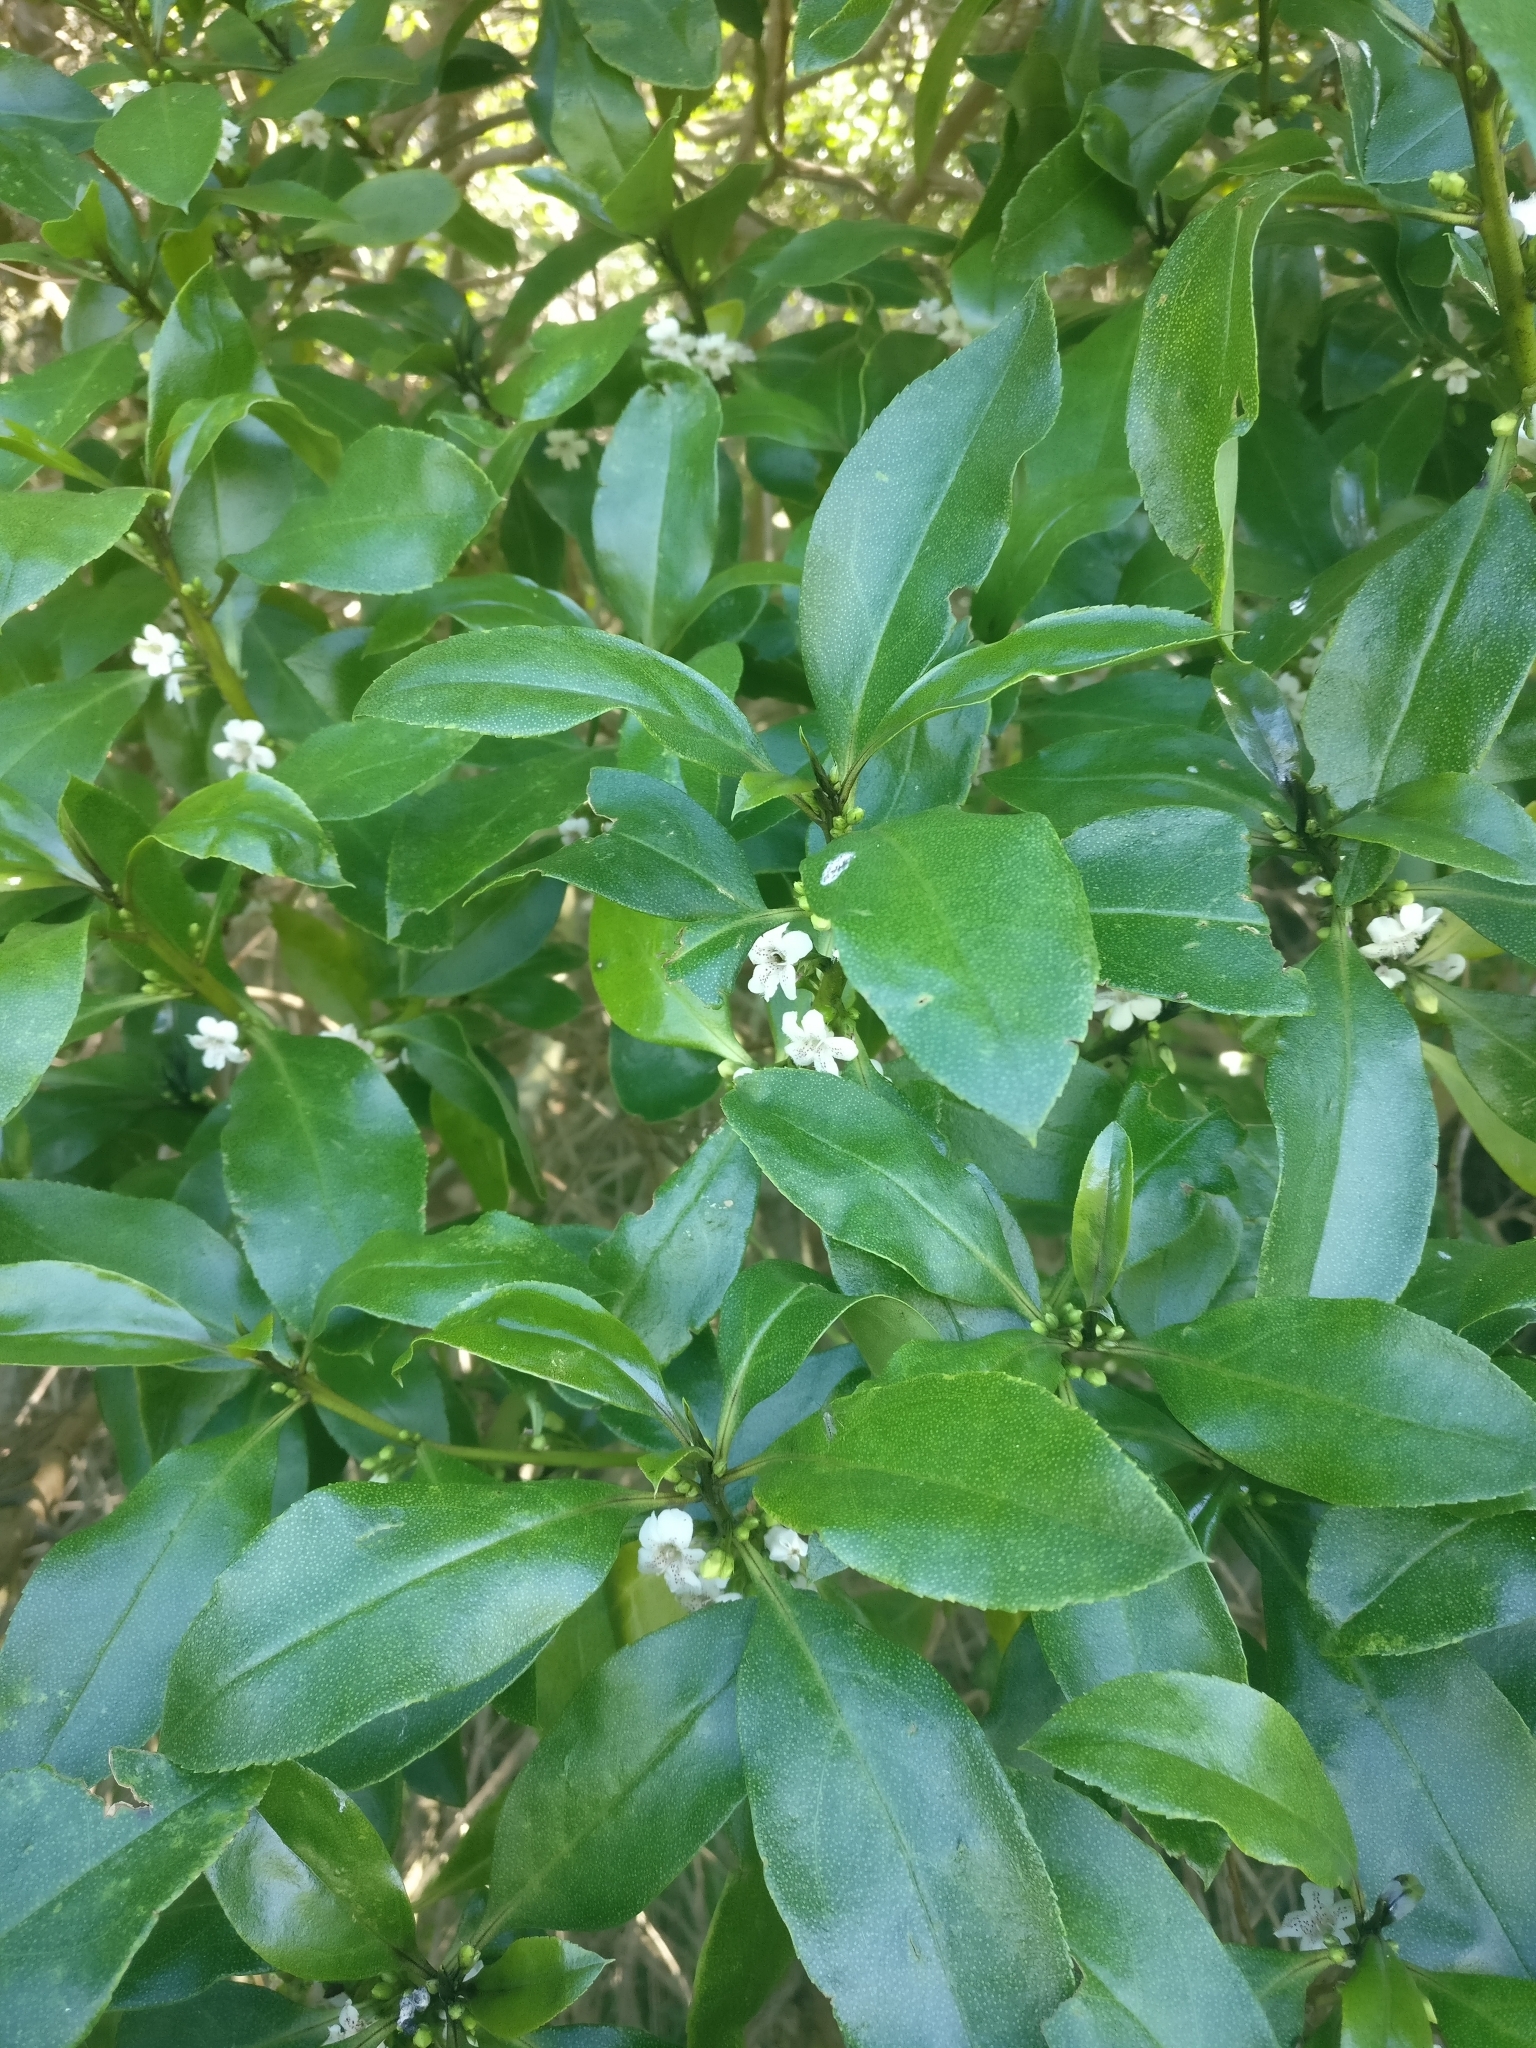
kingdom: Plantae
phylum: Tracheophyta
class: Magnoliopsida
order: Lamiales
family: Scrophulariaceae
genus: Myoporum
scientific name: Myoporum laetum
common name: Ngaio tree
